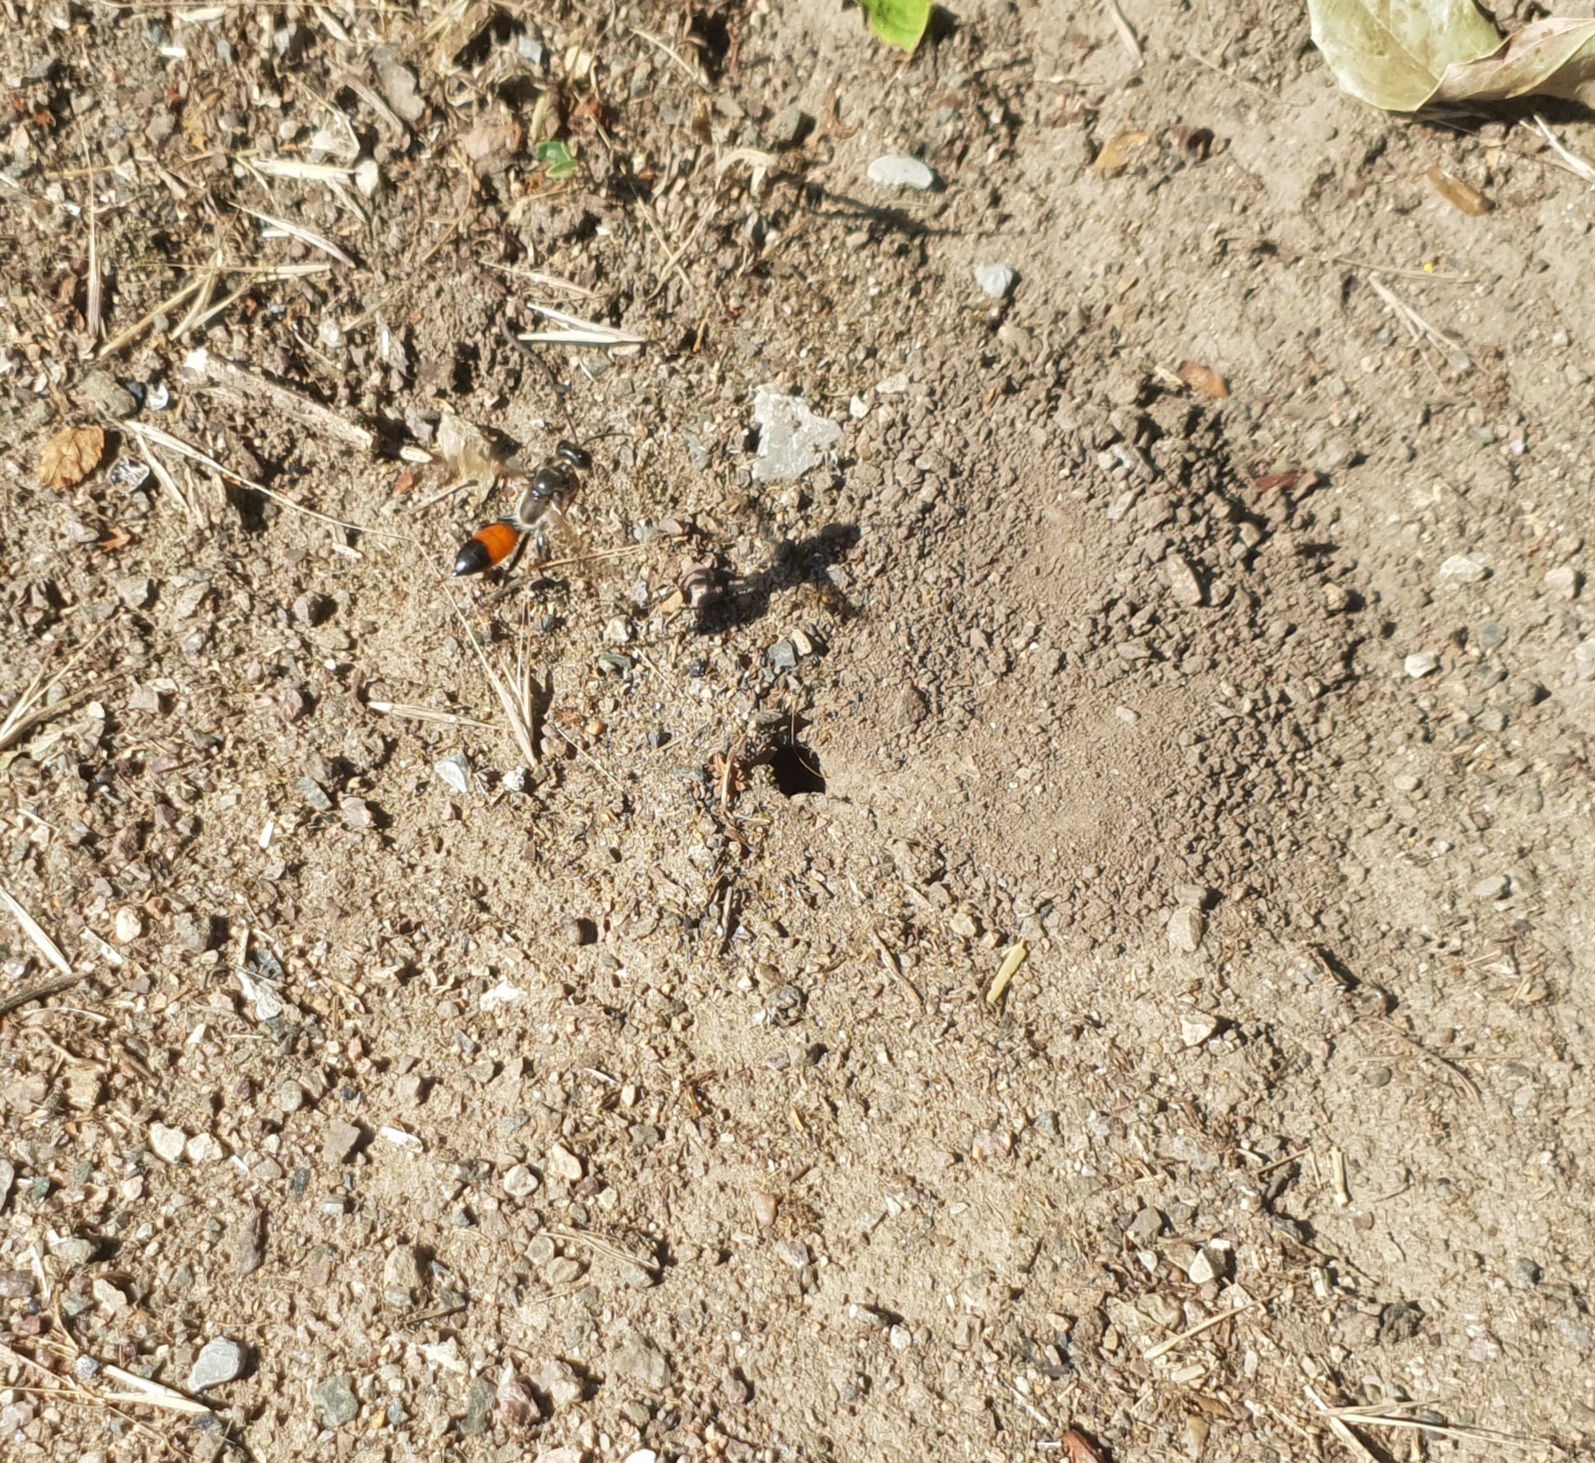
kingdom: Animalia
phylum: Arthropoda
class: Insecta
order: Hymenoptera
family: Sphecidae
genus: Sphex
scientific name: Sphex funerarius
